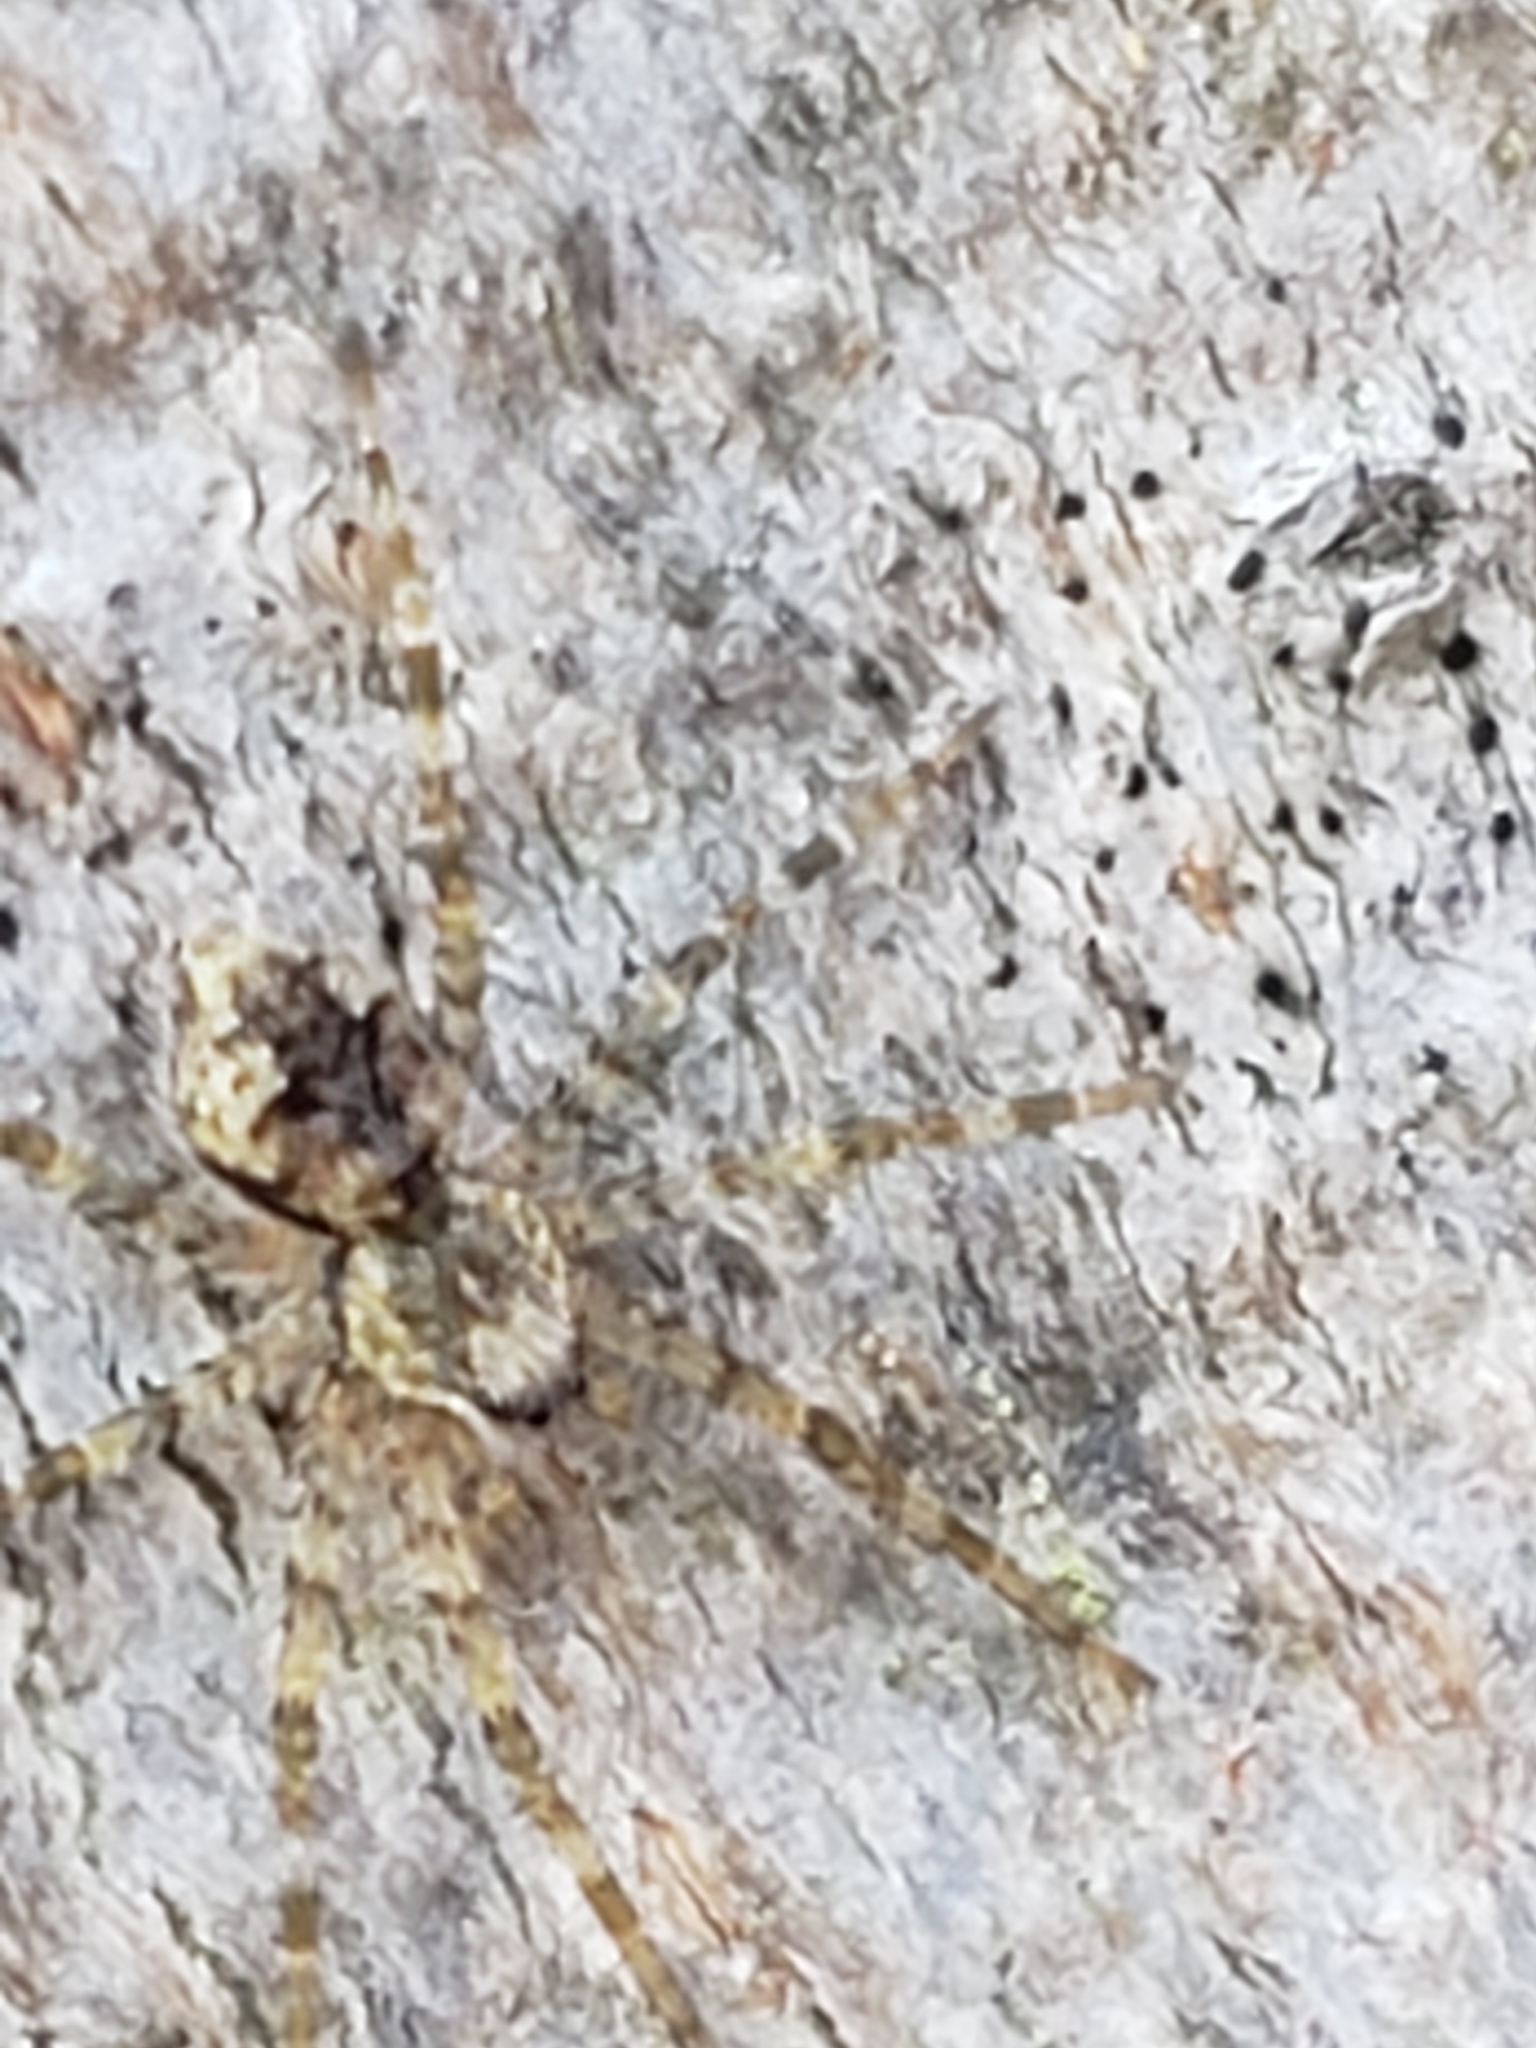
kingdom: Animalia
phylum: Arthropoda
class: Arachnida
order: Araneae
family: Pisauridae
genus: Dolomedes
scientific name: Dolomedes albineus
